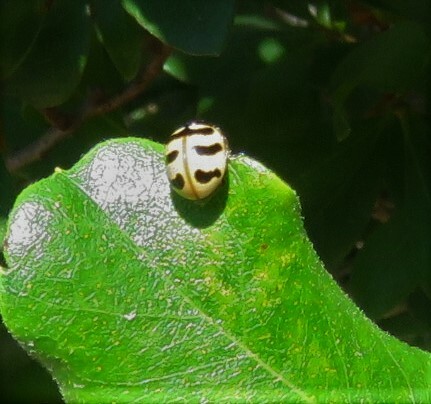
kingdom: Animalia
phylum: Arthropoda
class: Insecta
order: Coleoptera
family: Coccinellidae
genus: Coccinella
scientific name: Coccinella trifasciata
